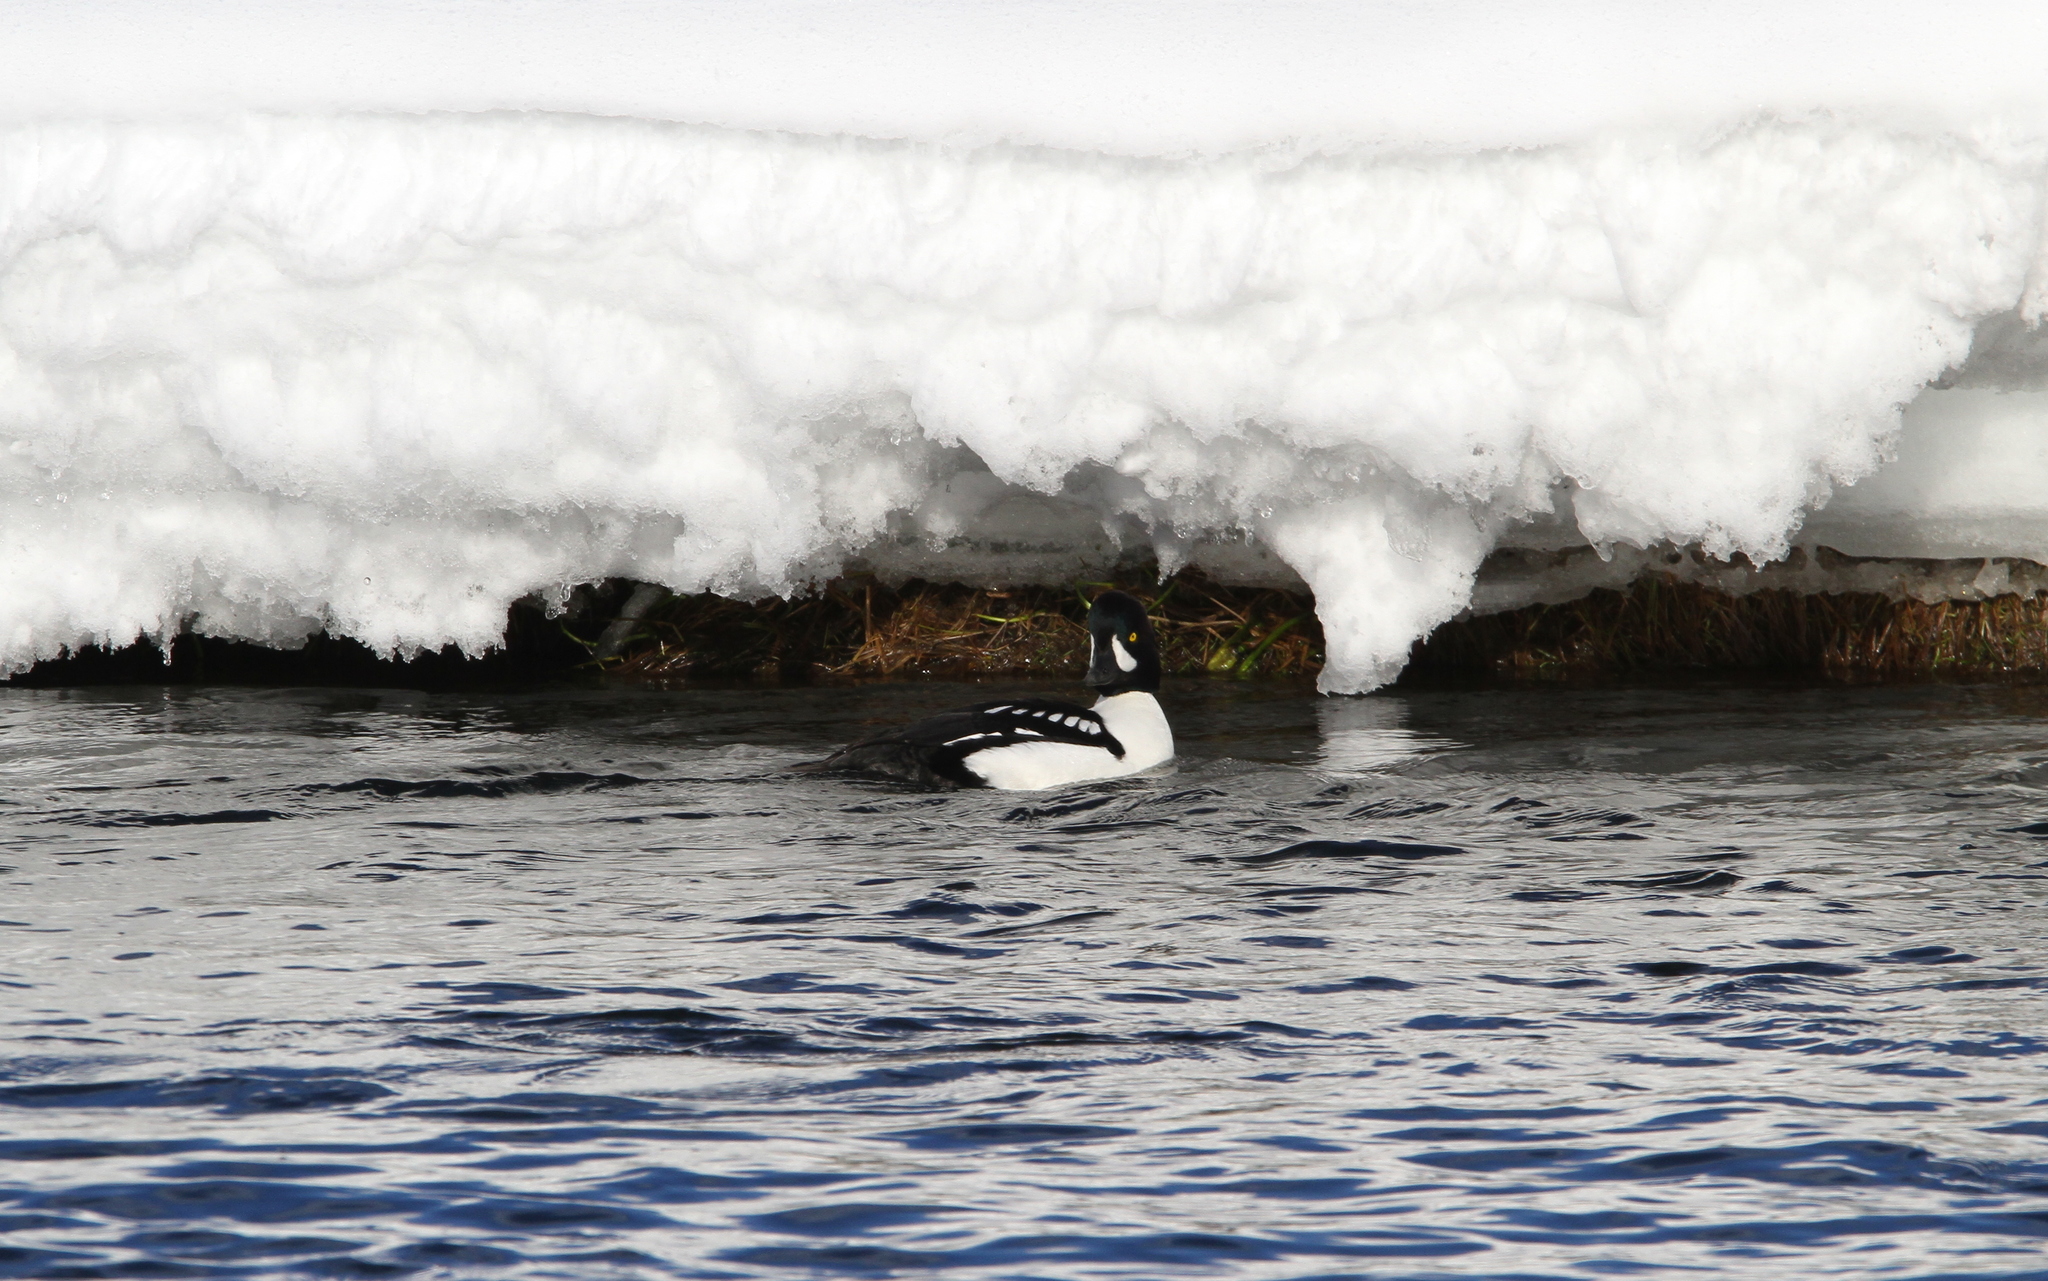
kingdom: Animalia
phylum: Chordata
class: Aves
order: Anseriformes
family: Anatidae
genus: Bucephala
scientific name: Bucephala islandica
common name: Barrow's goldeneye
